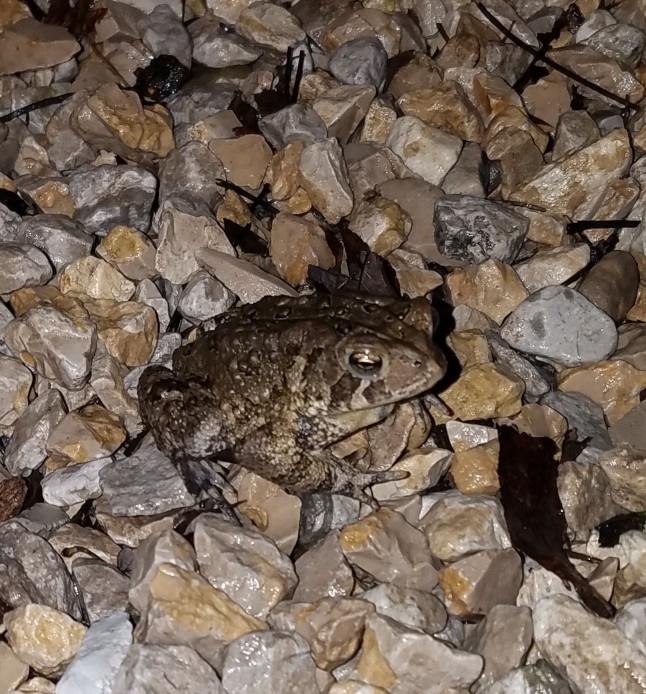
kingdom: Animalia
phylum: Chordata
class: Amphibia
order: Anura
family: Bufonidae
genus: Anaxyrus
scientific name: Anaxyrus americanus
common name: American toad
